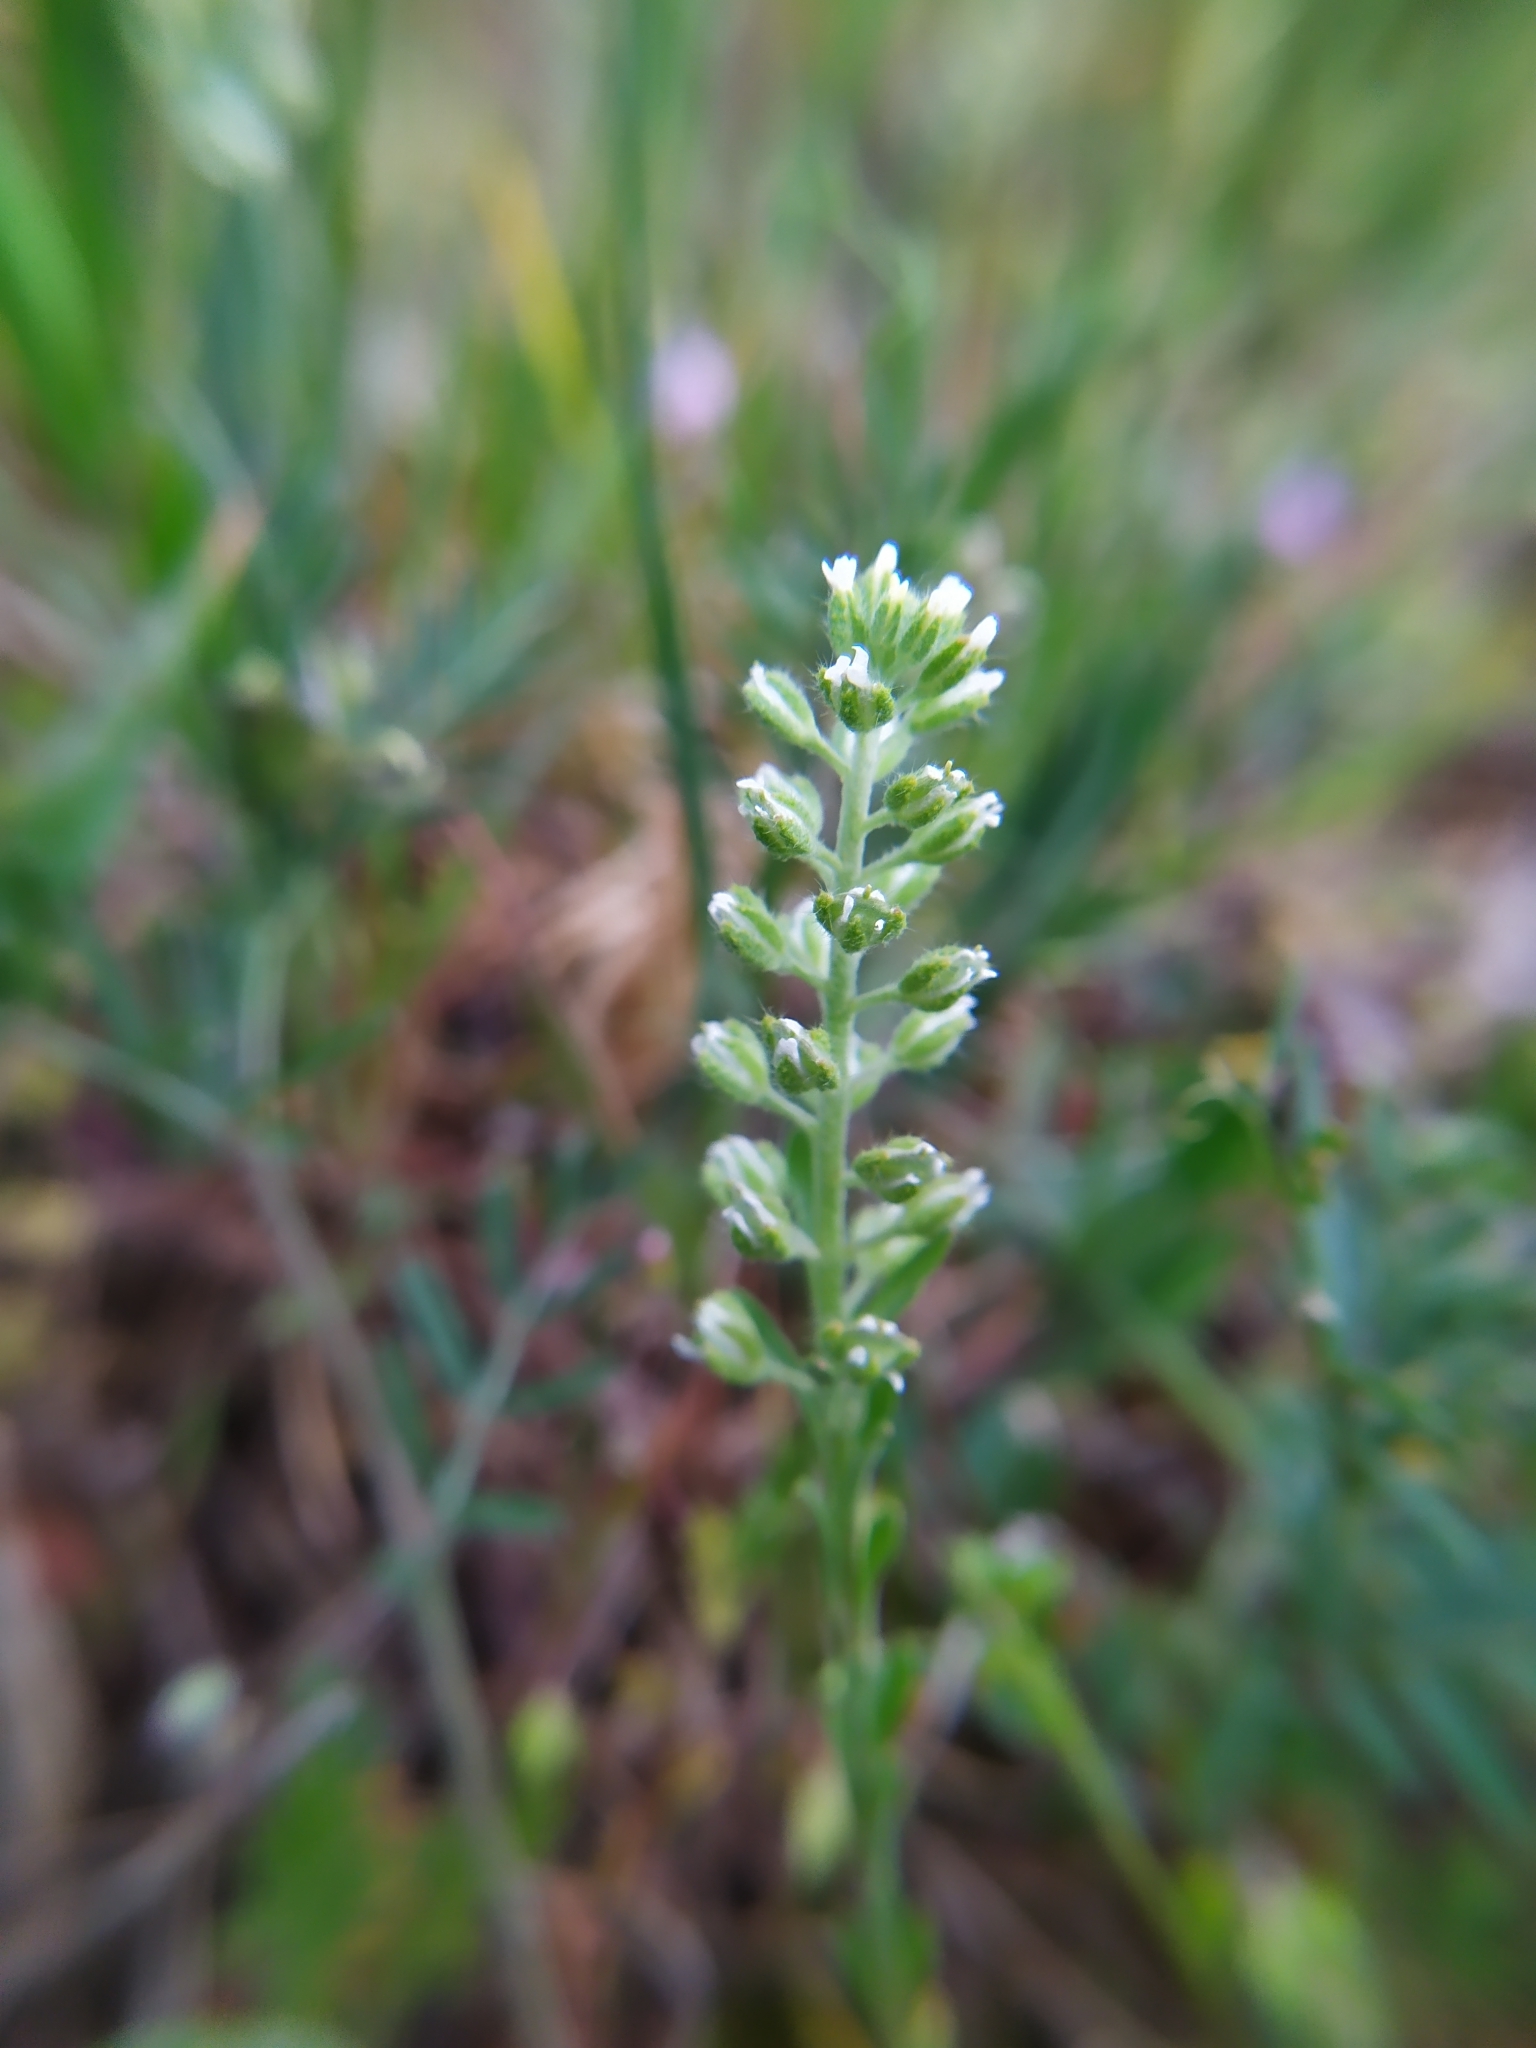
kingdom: Plantae
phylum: Tracheophyta
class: Magnoliopsida
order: Brassicales
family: Brassicaceae
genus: Alyssum
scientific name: Alyssum alyssoides
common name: Small alison
